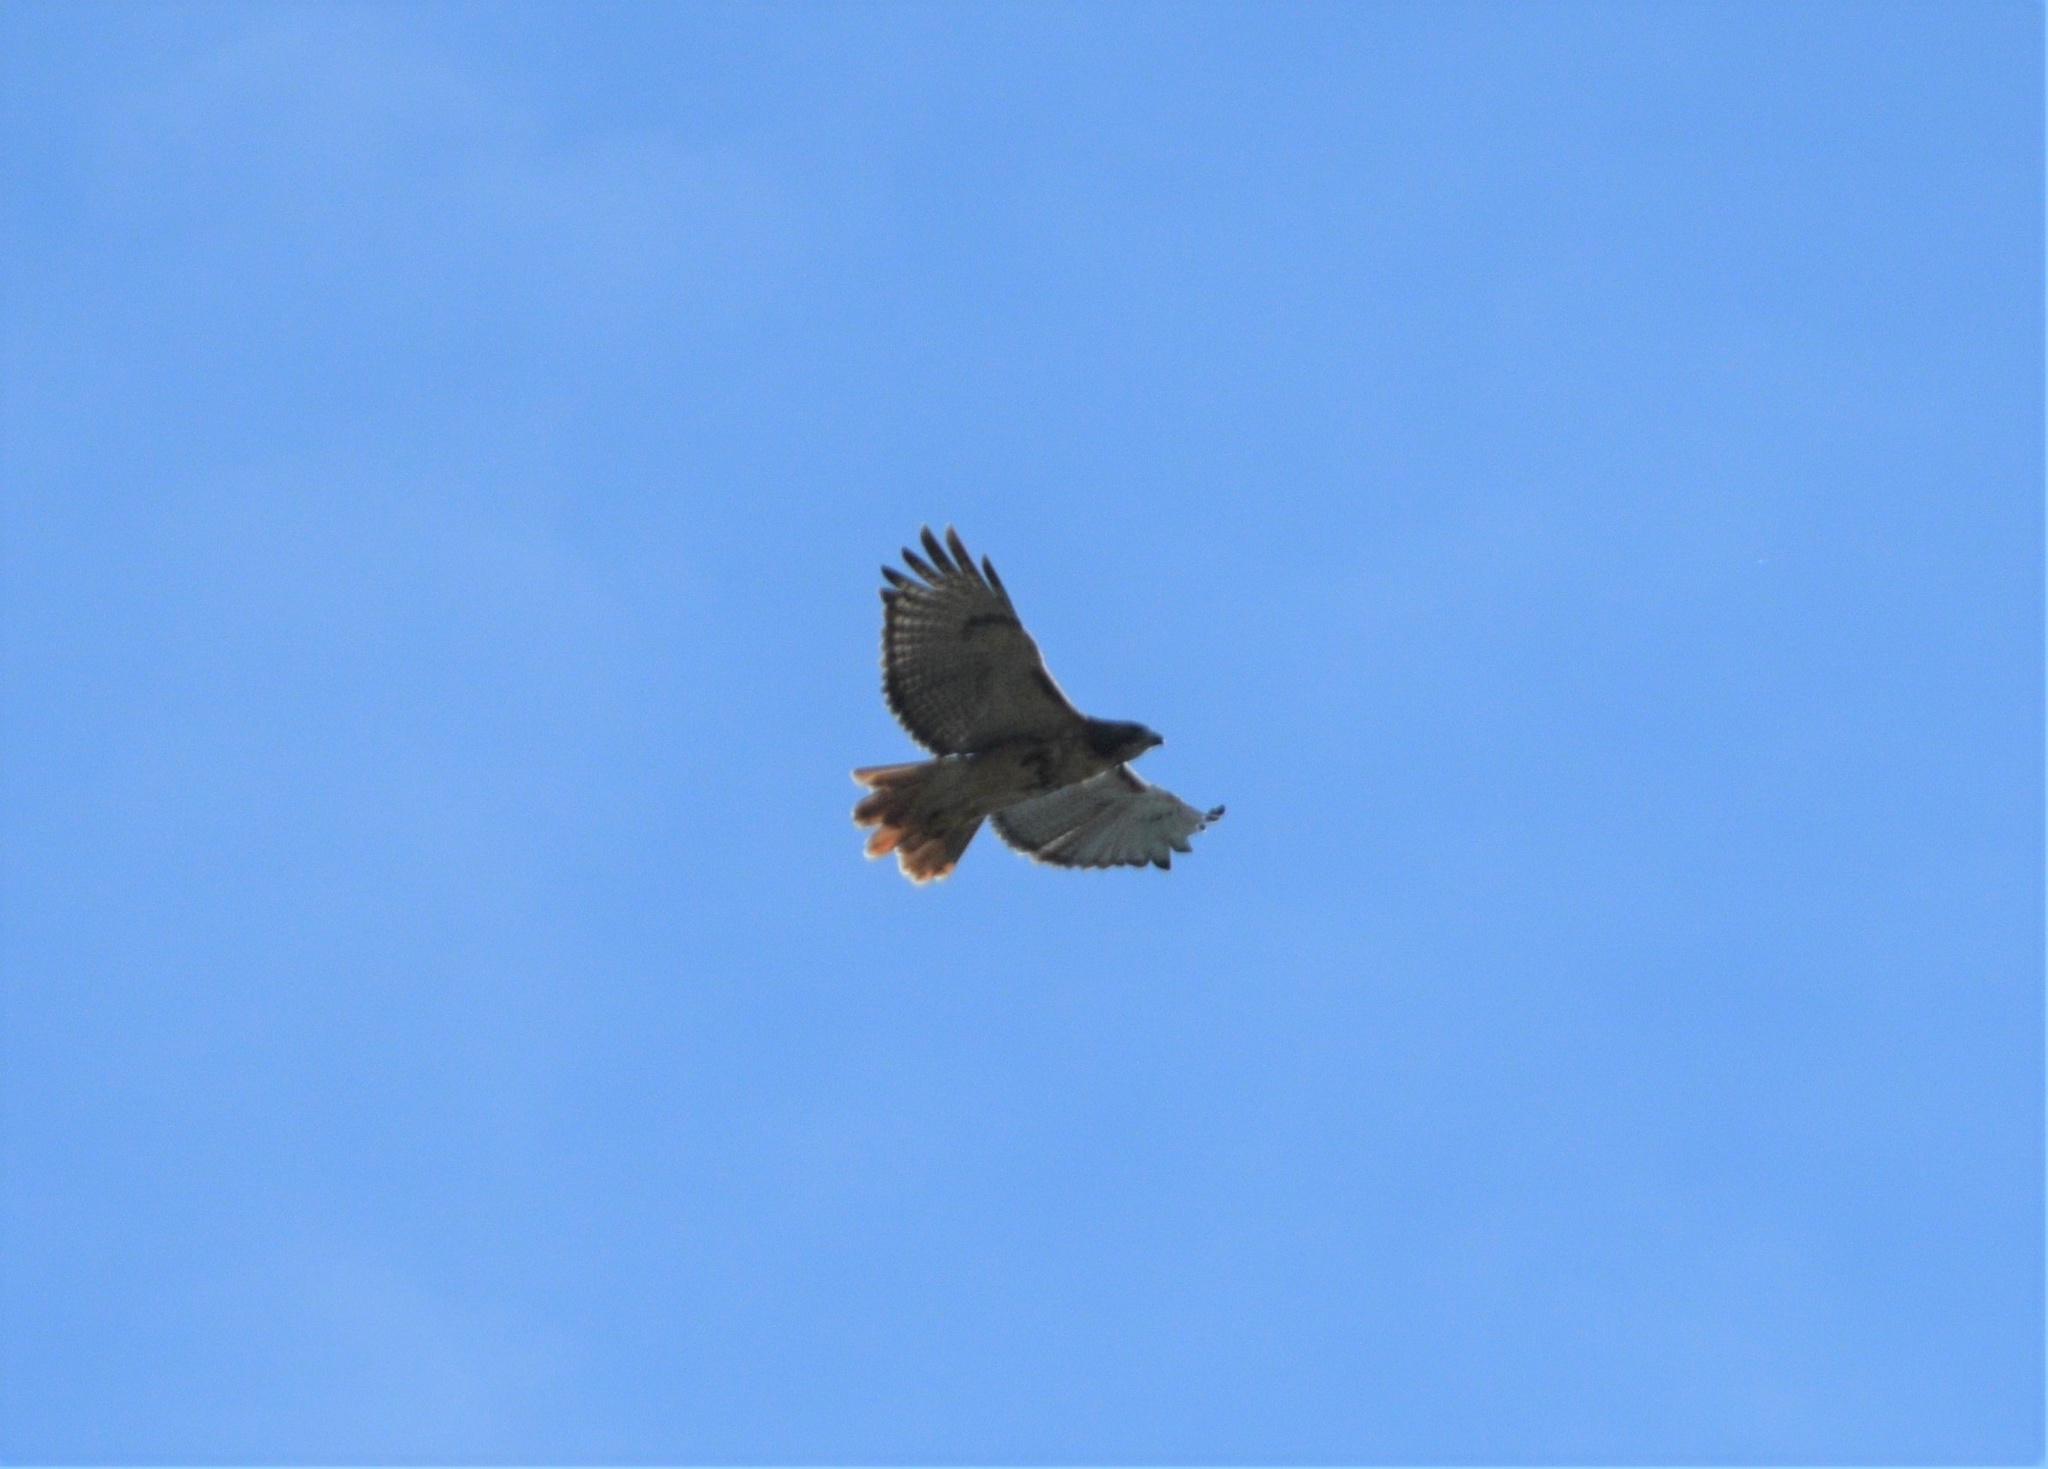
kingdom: Animalia
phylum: Chordata
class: Aves
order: Accipitriformes
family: Accipitridae
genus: Buteo
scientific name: Buteo jamaicensis
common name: Red-tailed hawk
